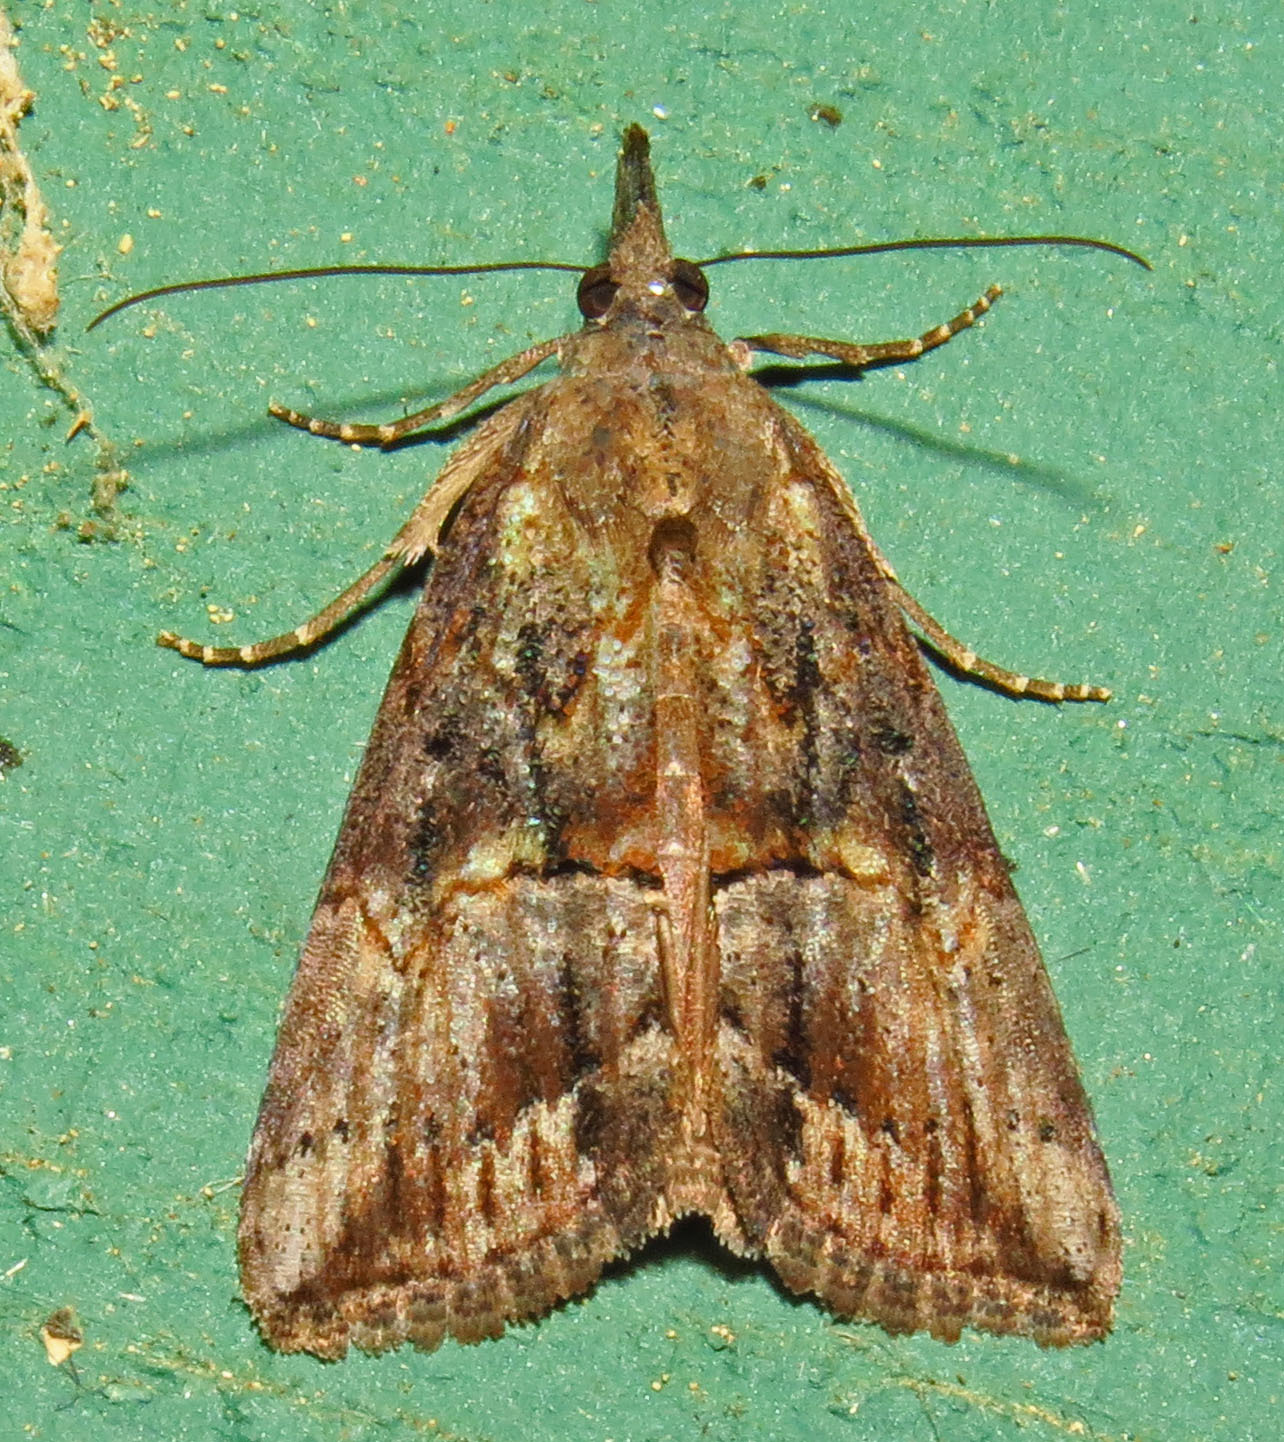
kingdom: Animalia
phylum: Arthropoda
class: Insecta
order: Lepidoptera
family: Erebidae
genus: Hypena
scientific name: Hypena scabra
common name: Green cloverworm
